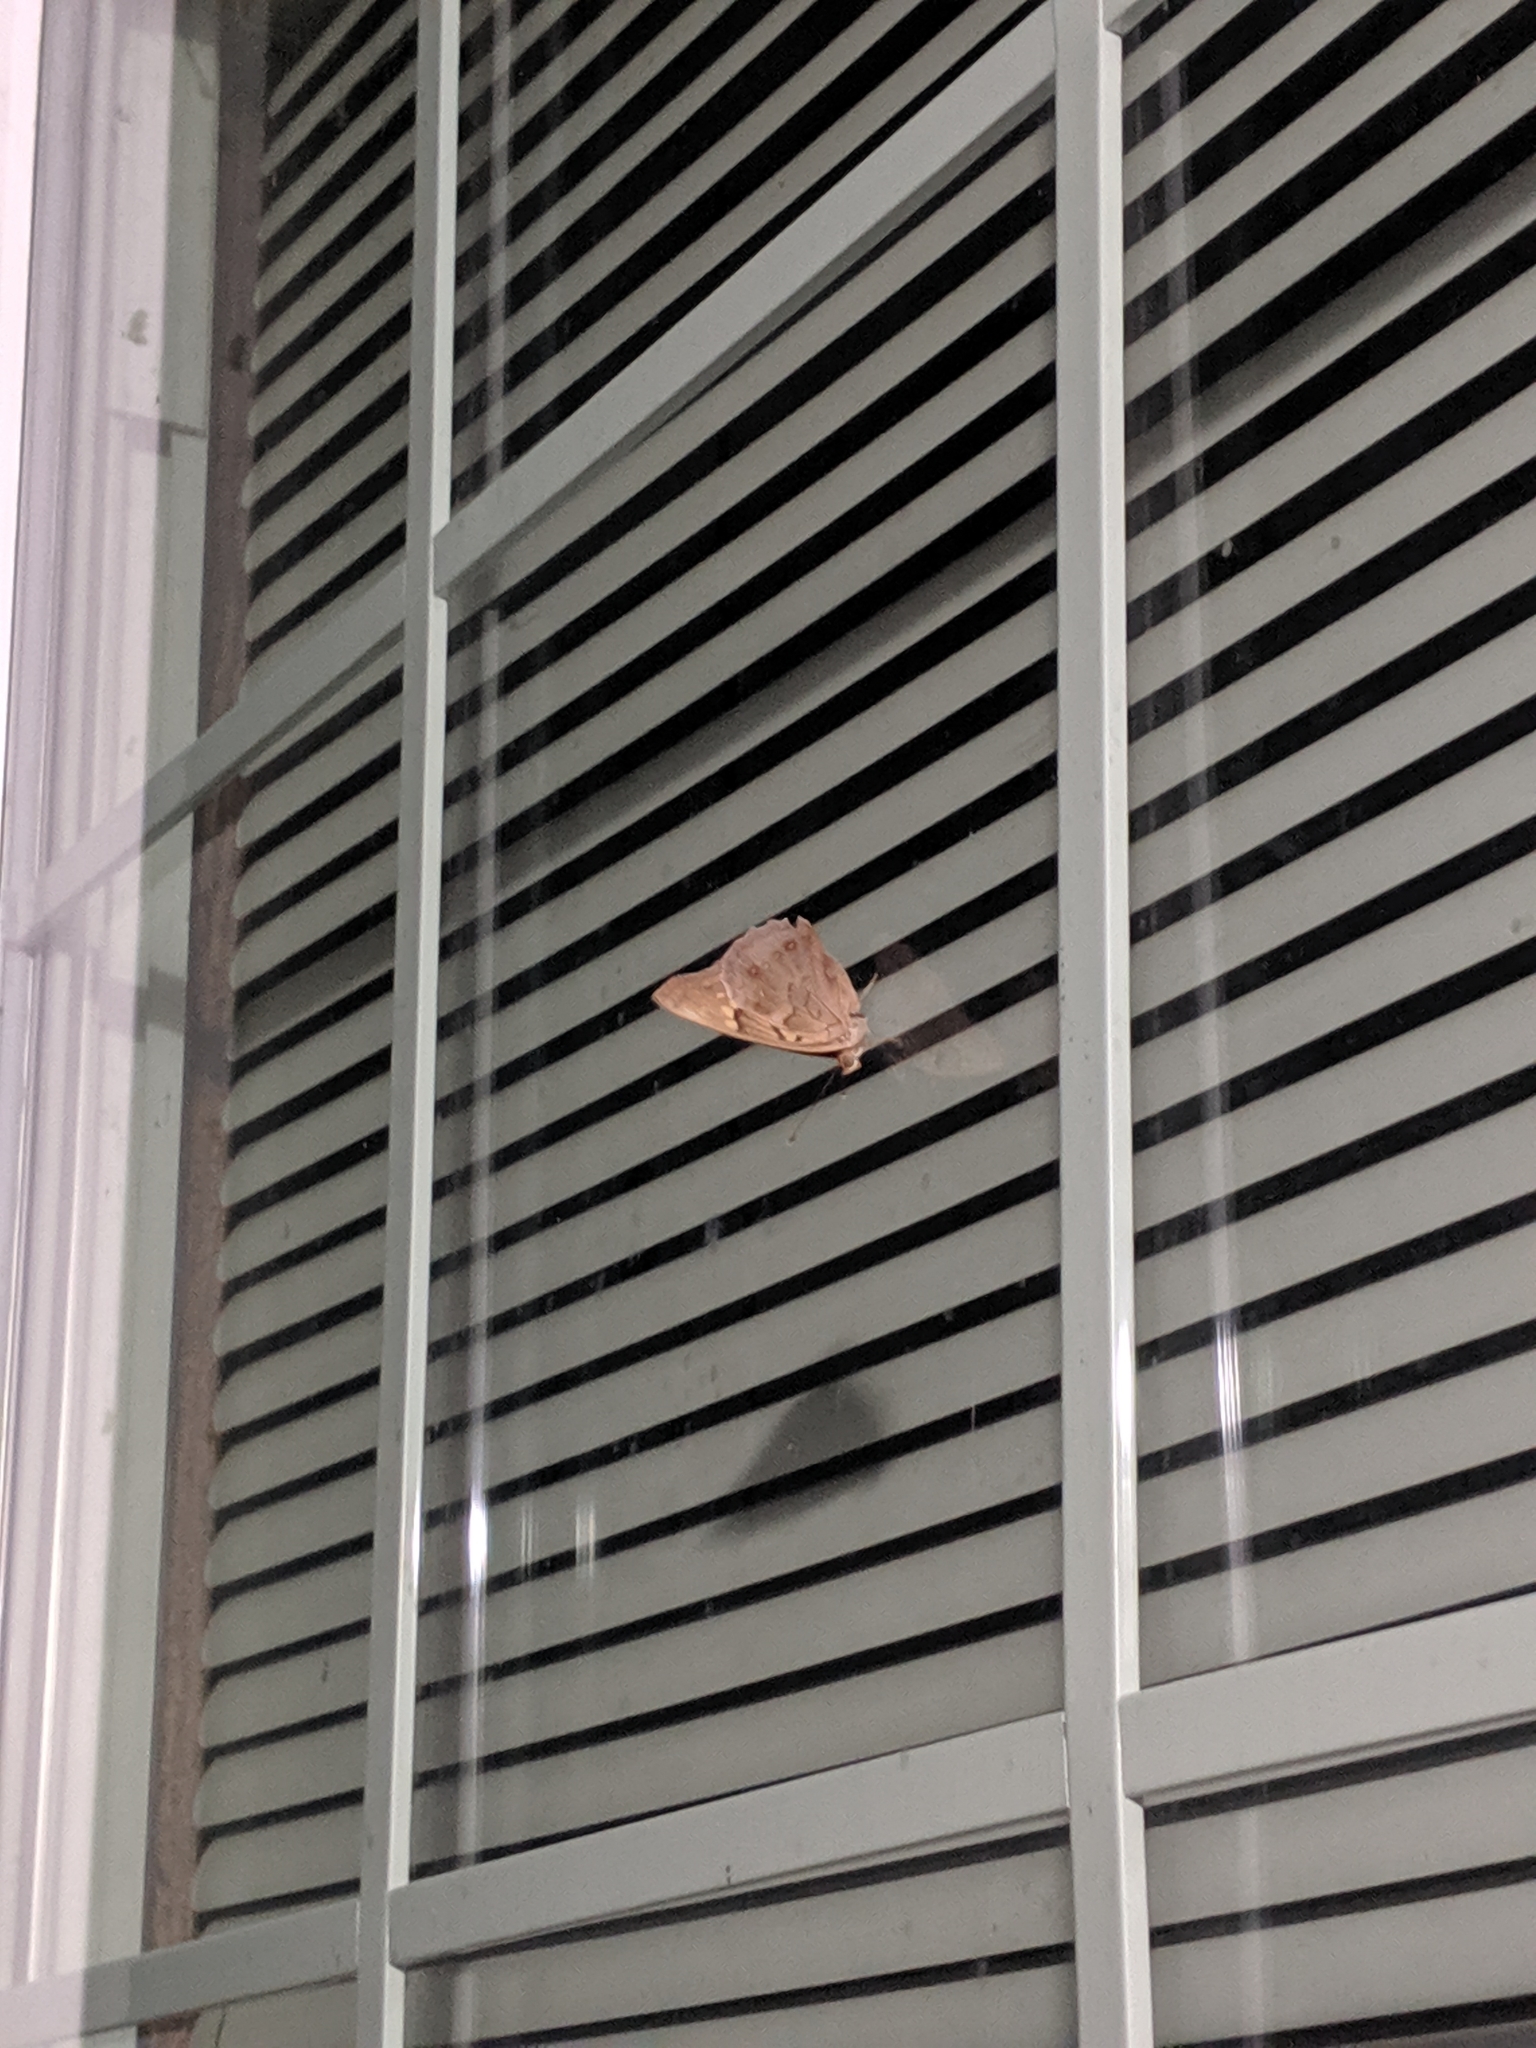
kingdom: Animalia
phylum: Arthropoda
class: Insecta
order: Lepidoptera
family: Nymphalidae
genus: Asterocampa
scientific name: Asterocampa clyton
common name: Tawny emperor
